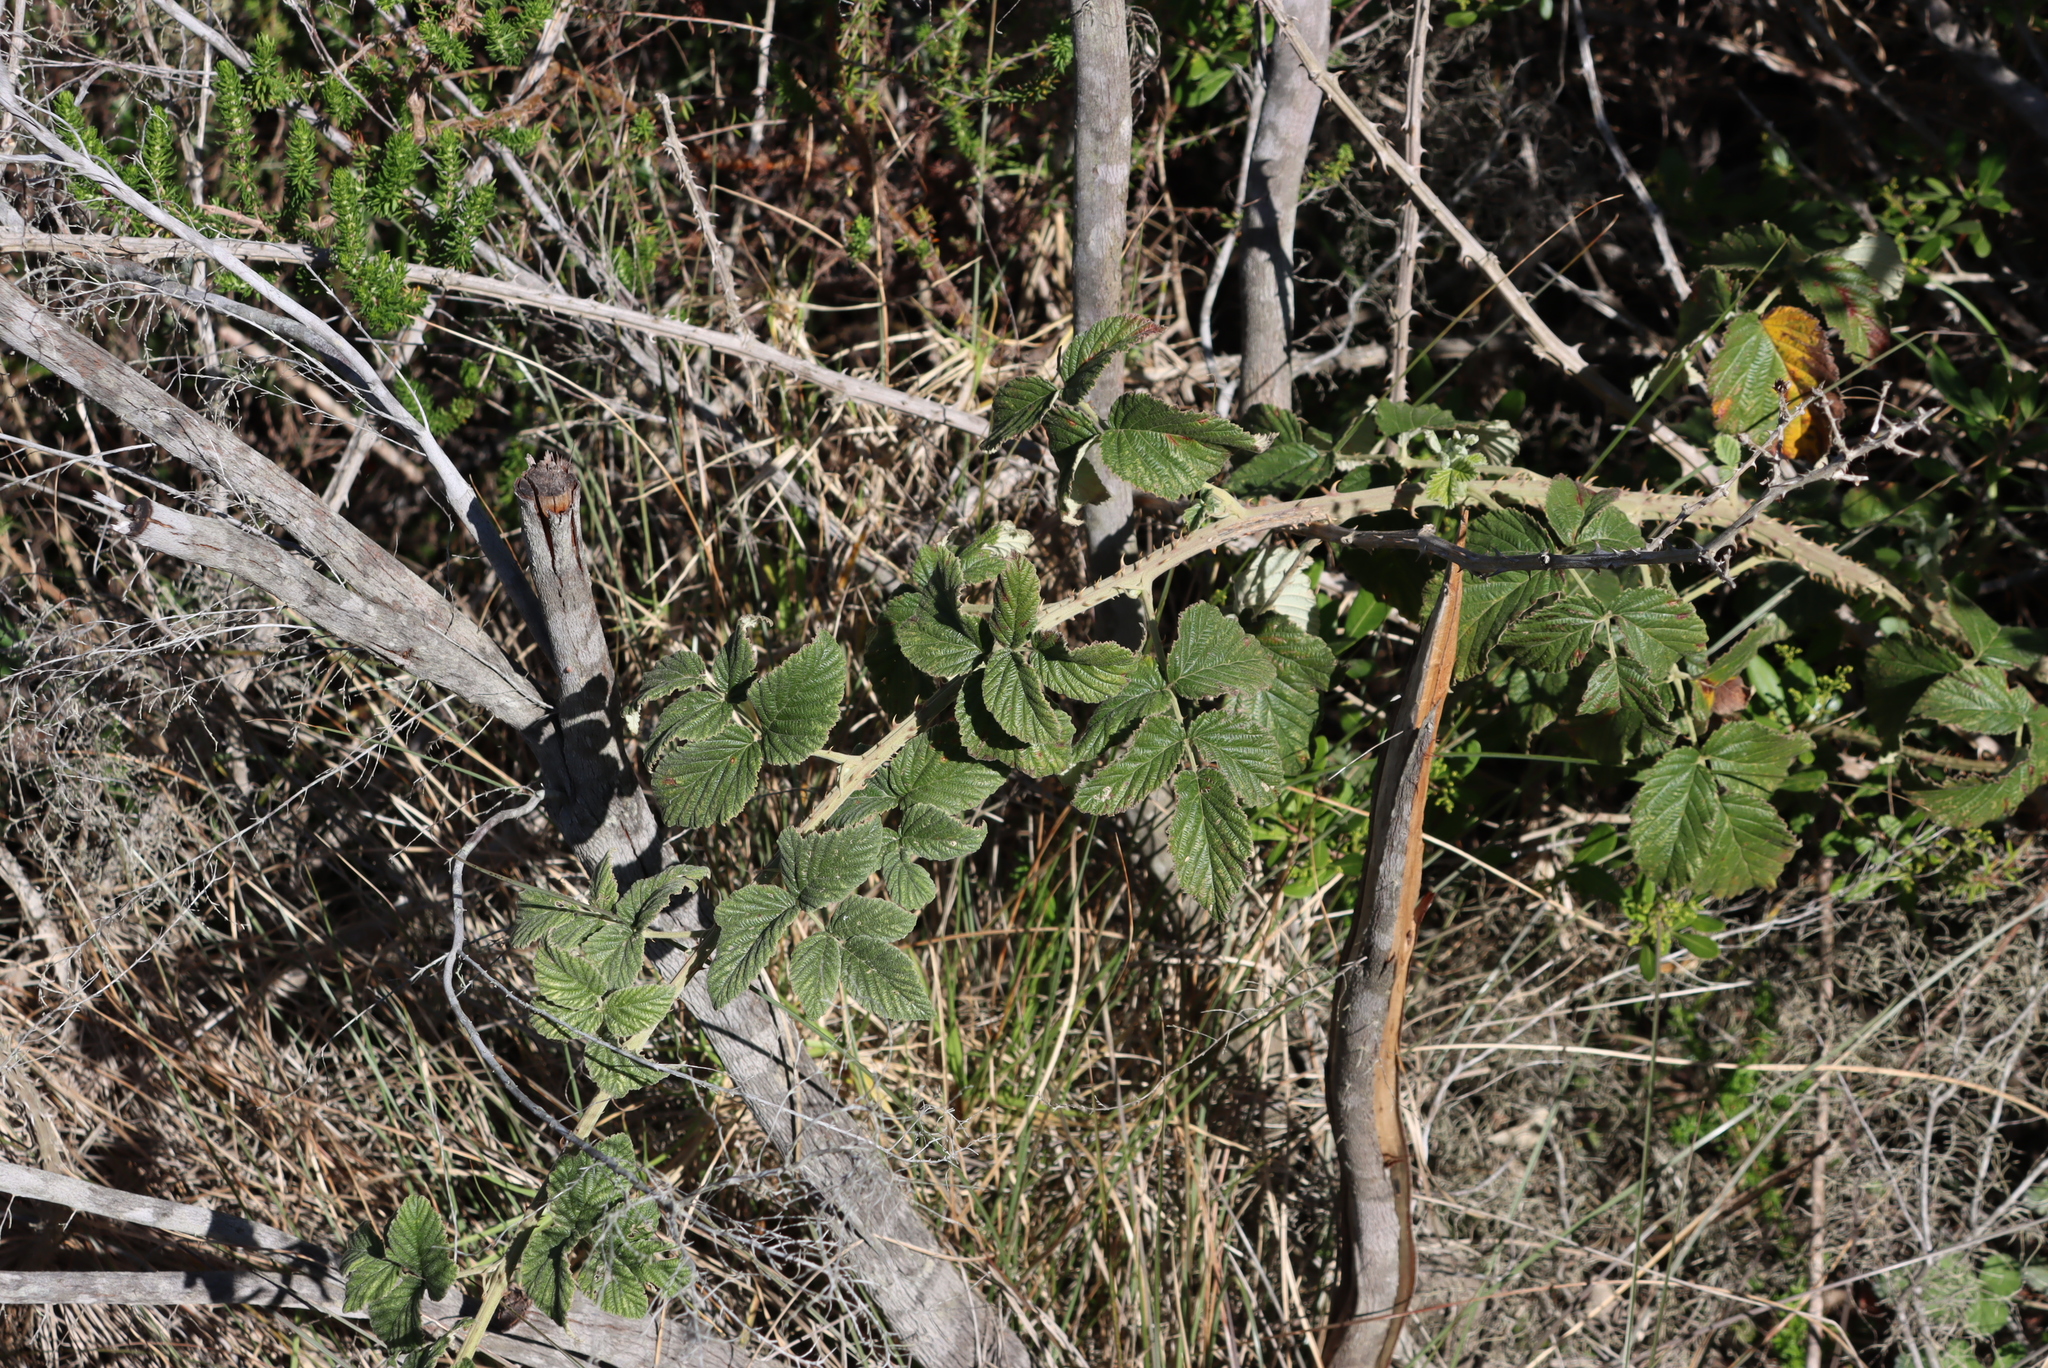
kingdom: Plantae
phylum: Tracheophyta
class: Magnoliopsida
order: Rosales
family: Rosaceae
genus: Rubus
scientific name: Rubus rigidus
